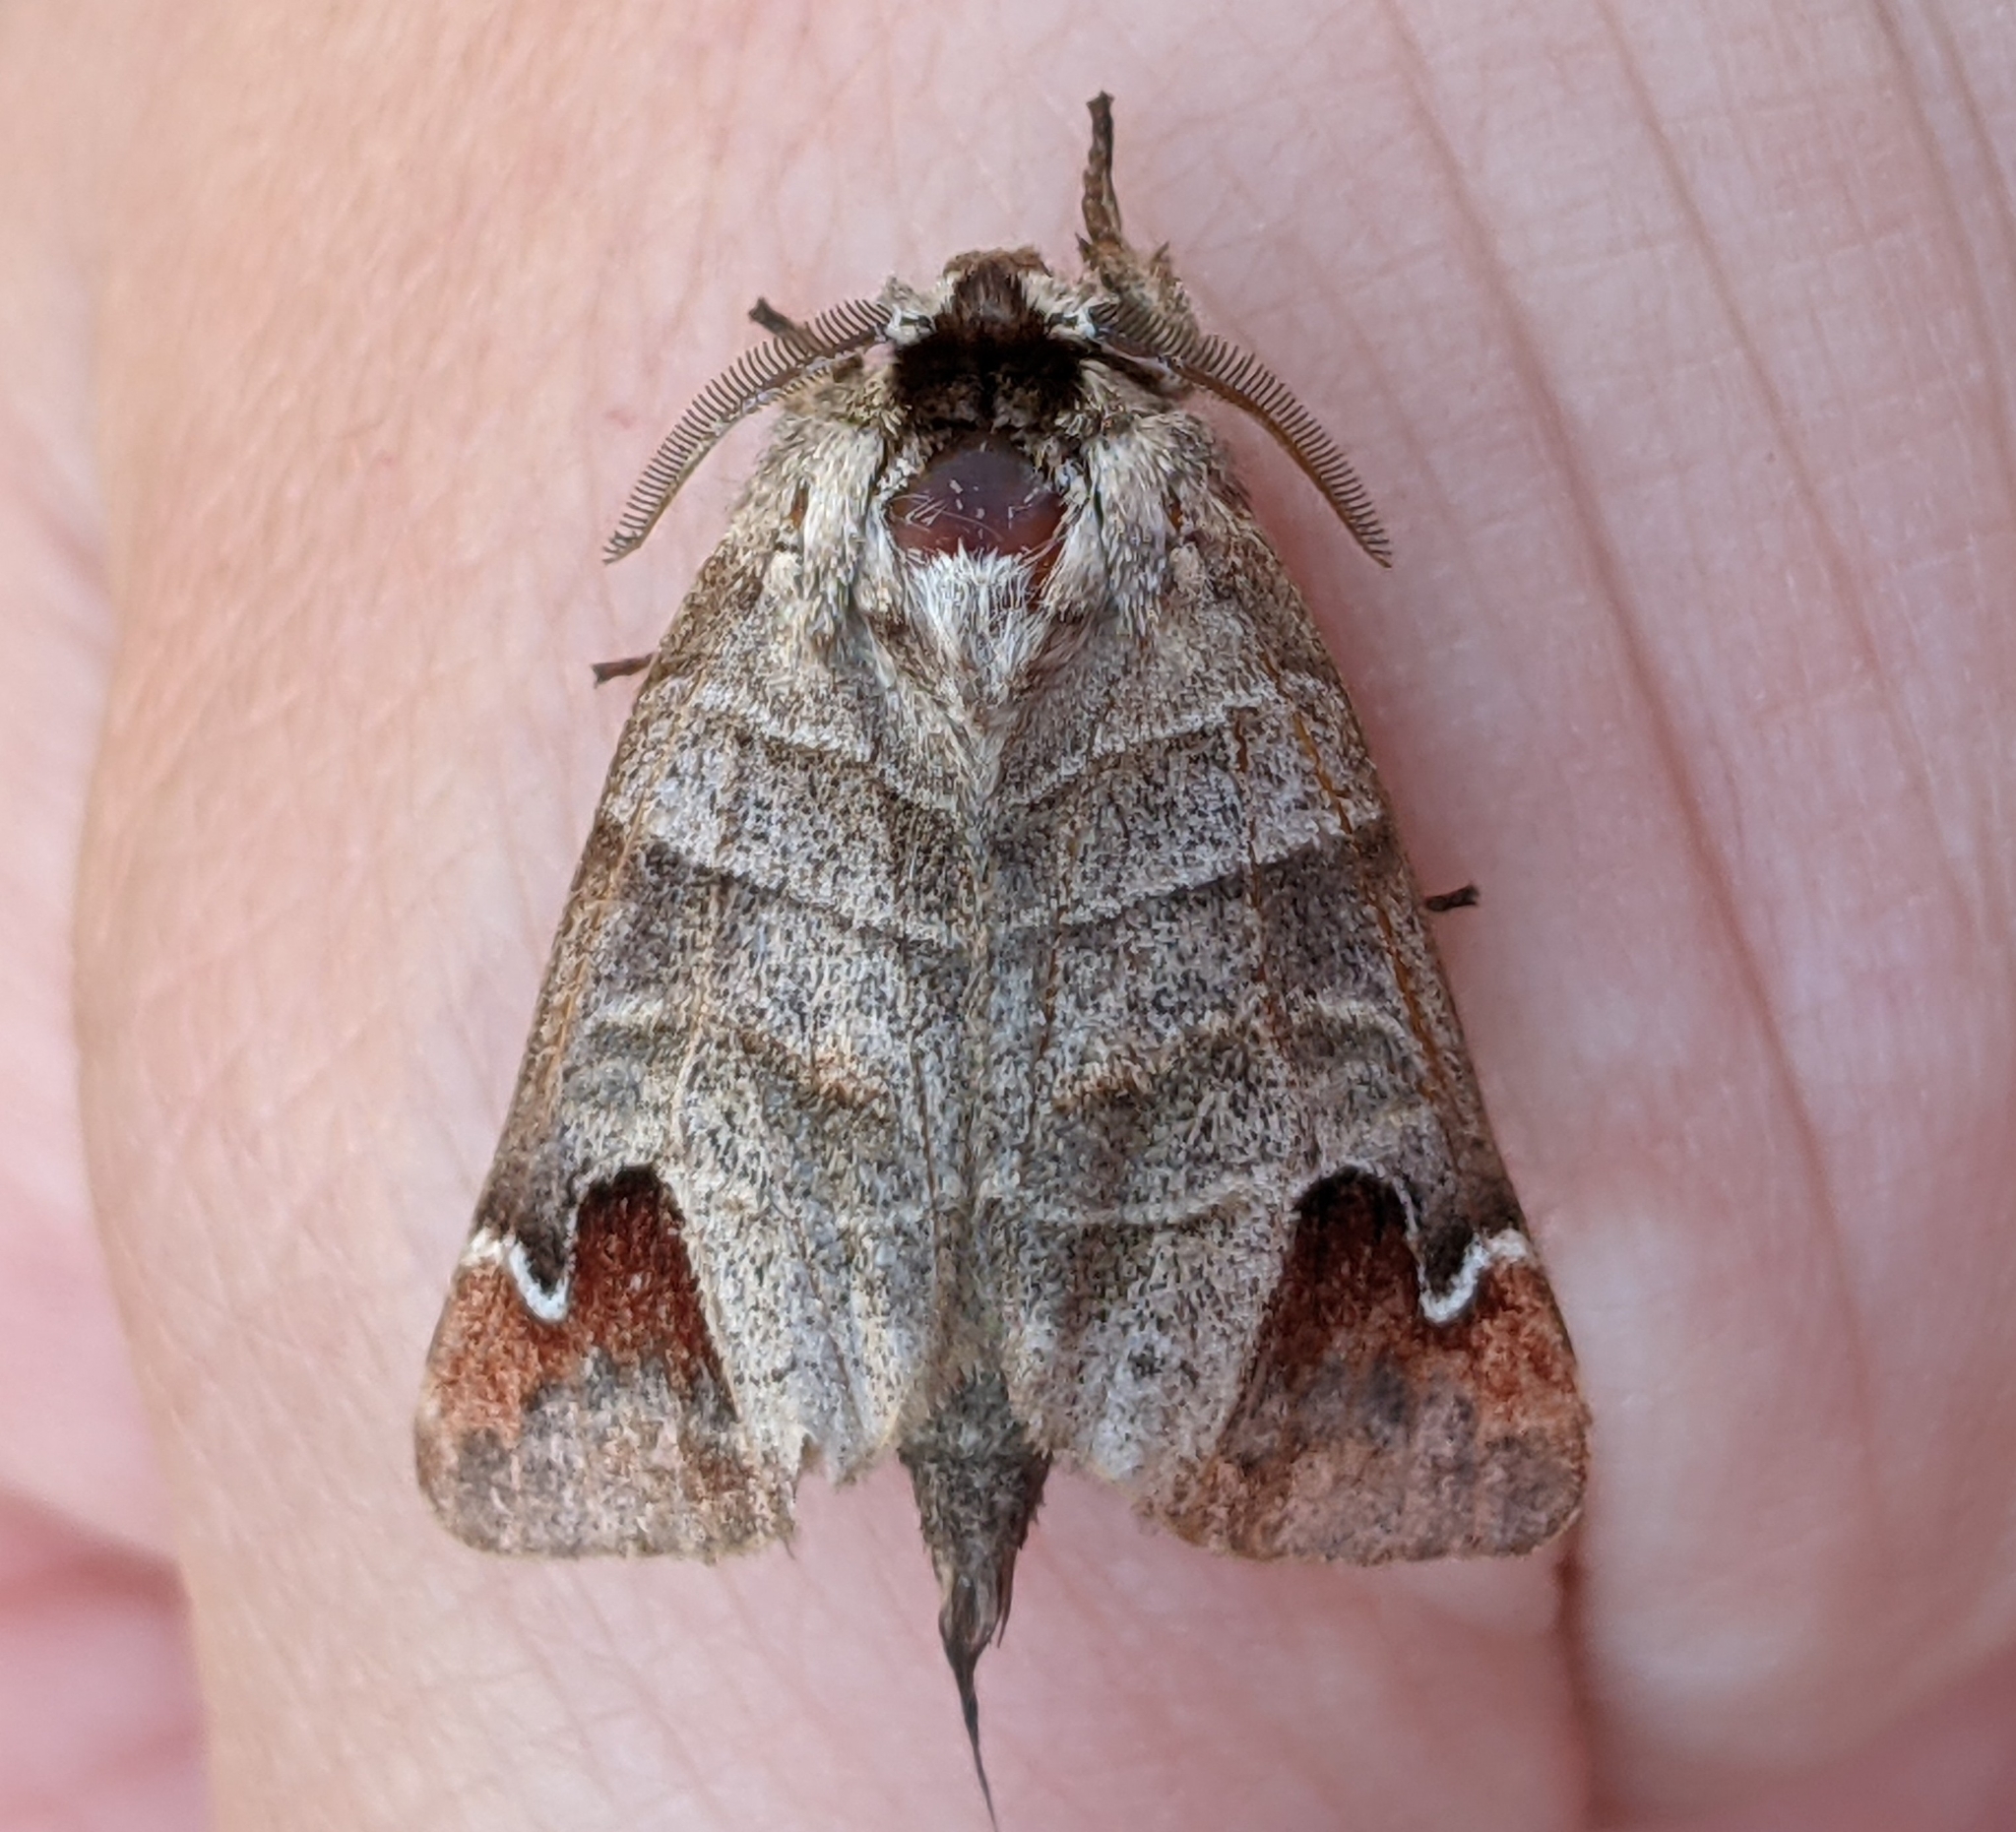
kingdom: Animalia
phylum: Arthropoda
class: Insecta
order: Lepidoptera
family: Notodontidae
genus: Clostera
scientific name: Clostera albosigma
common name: Sigmoid prominent
